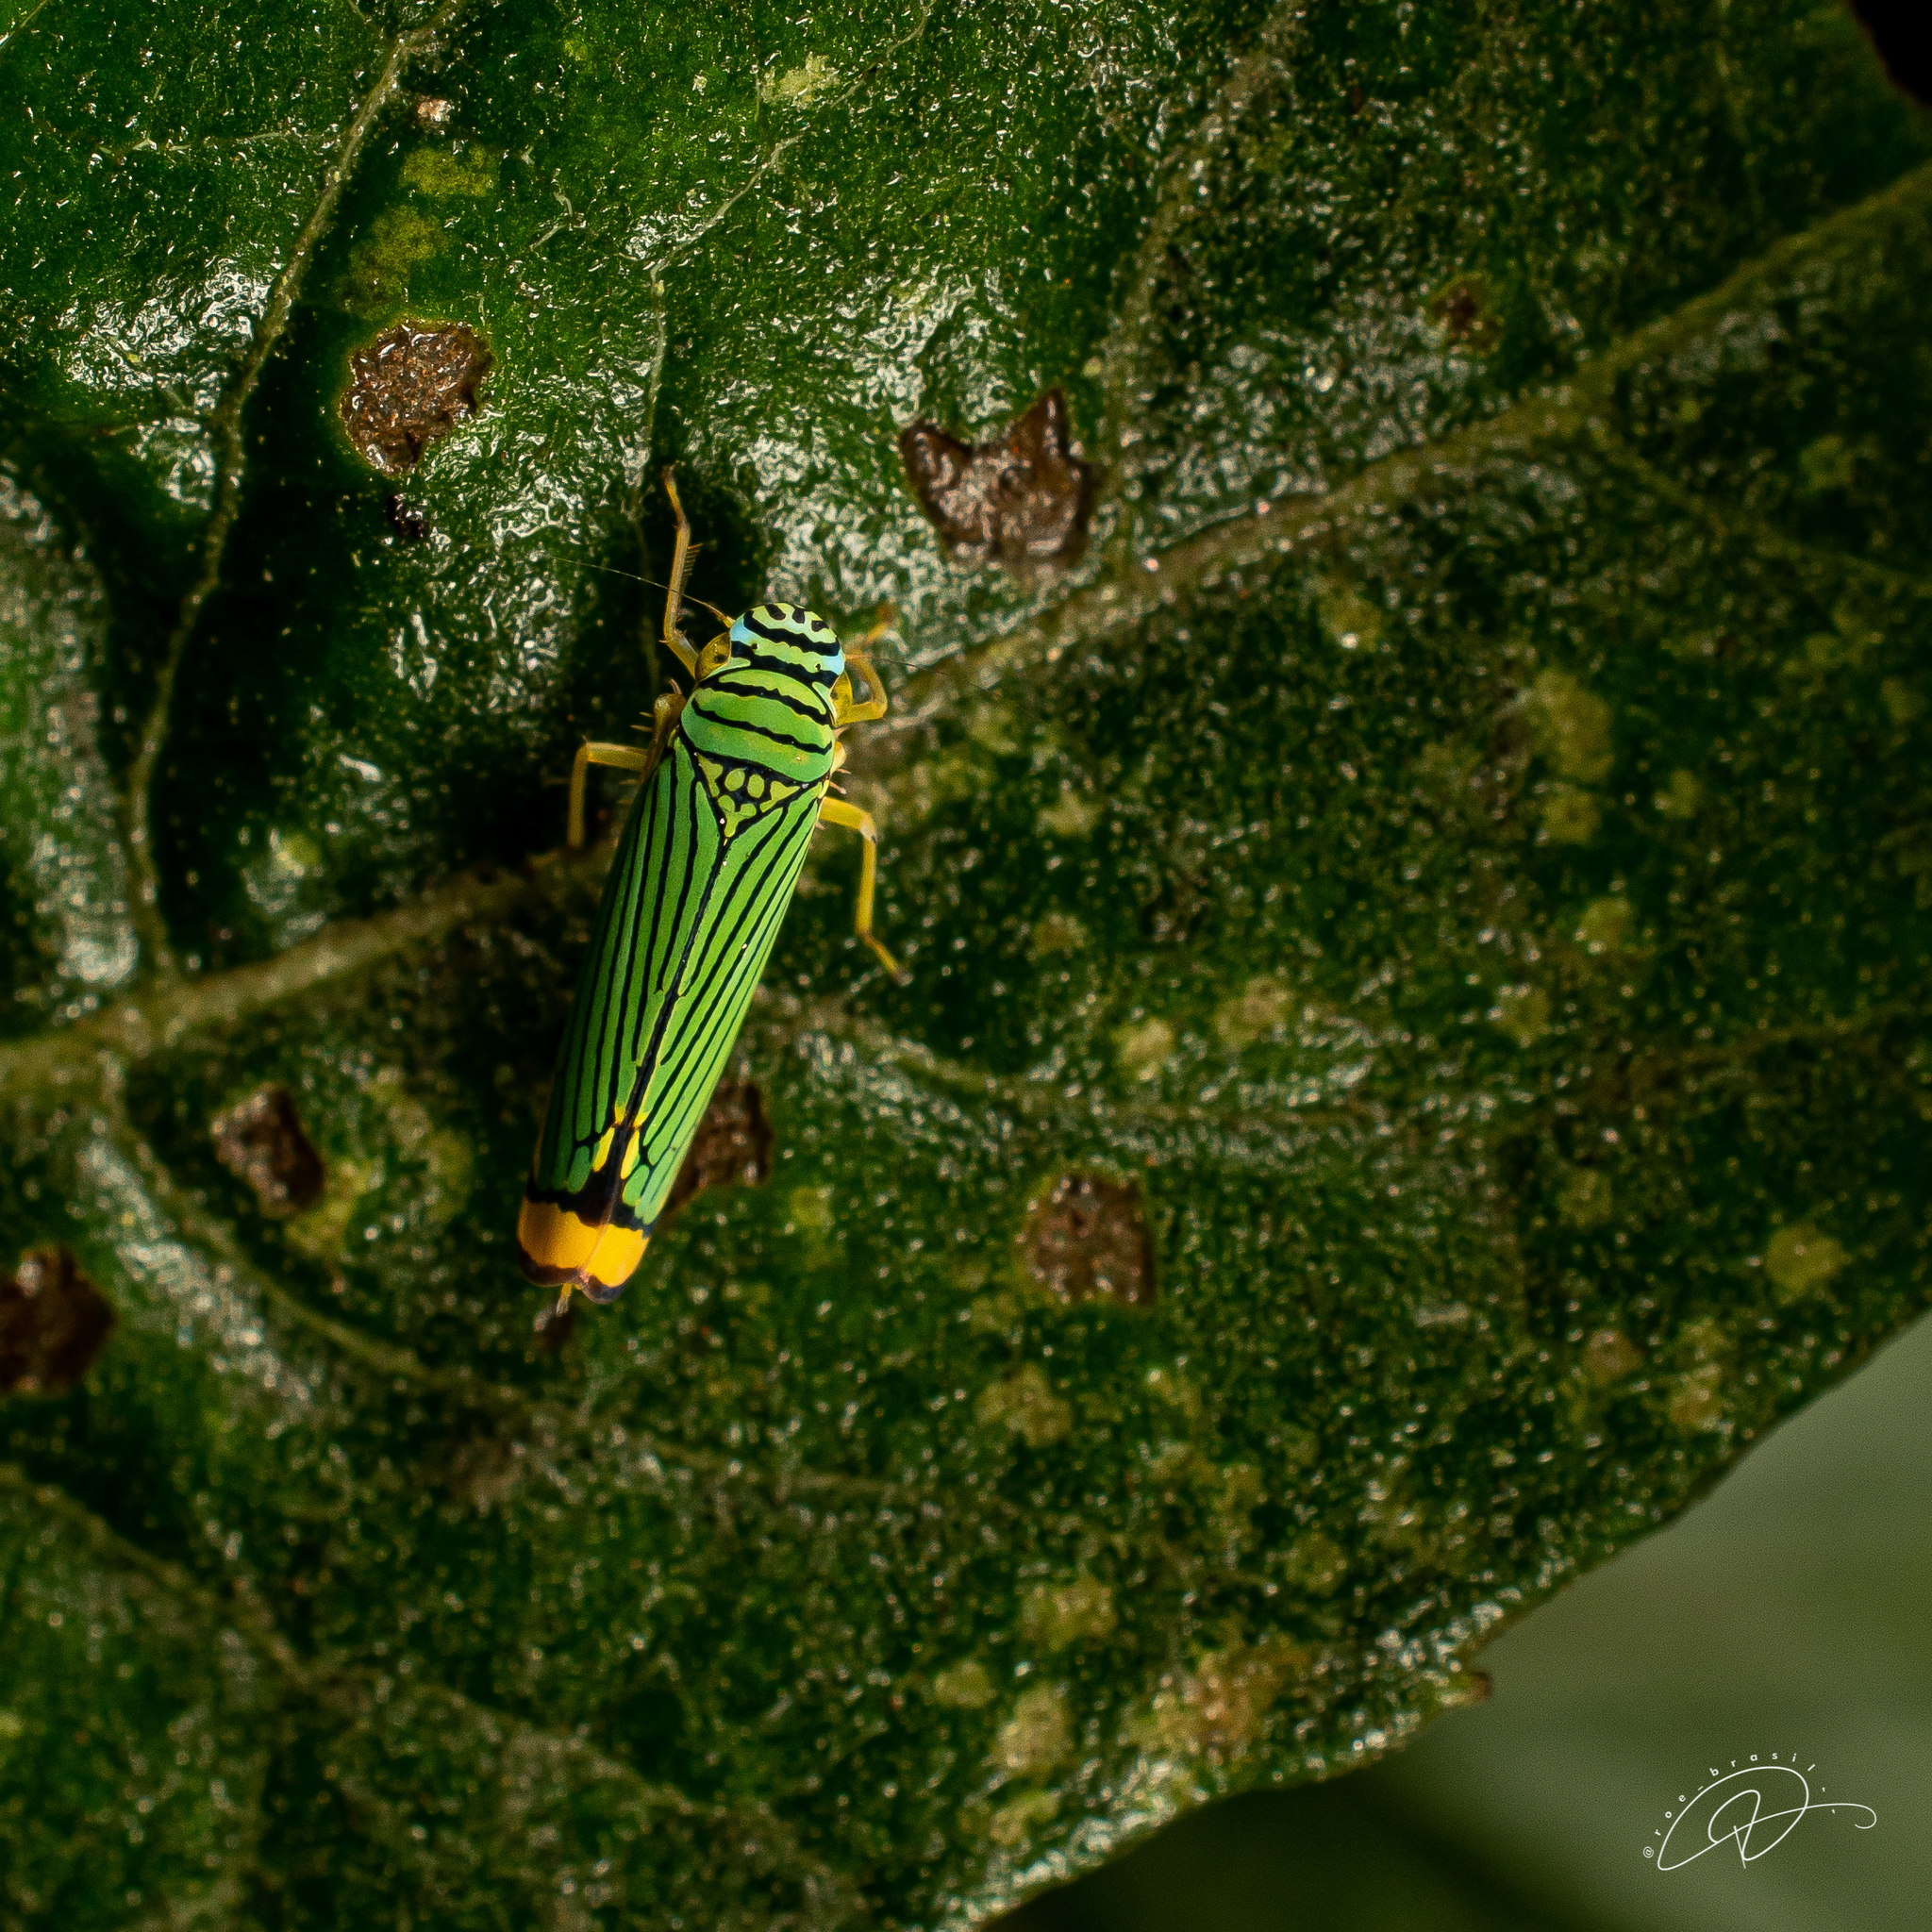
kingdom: Animalia
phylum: Arthropoda
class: Insecta
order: Hemiptera
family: Cicadellidae
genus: Laneola
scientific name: Laneola rubricauda
